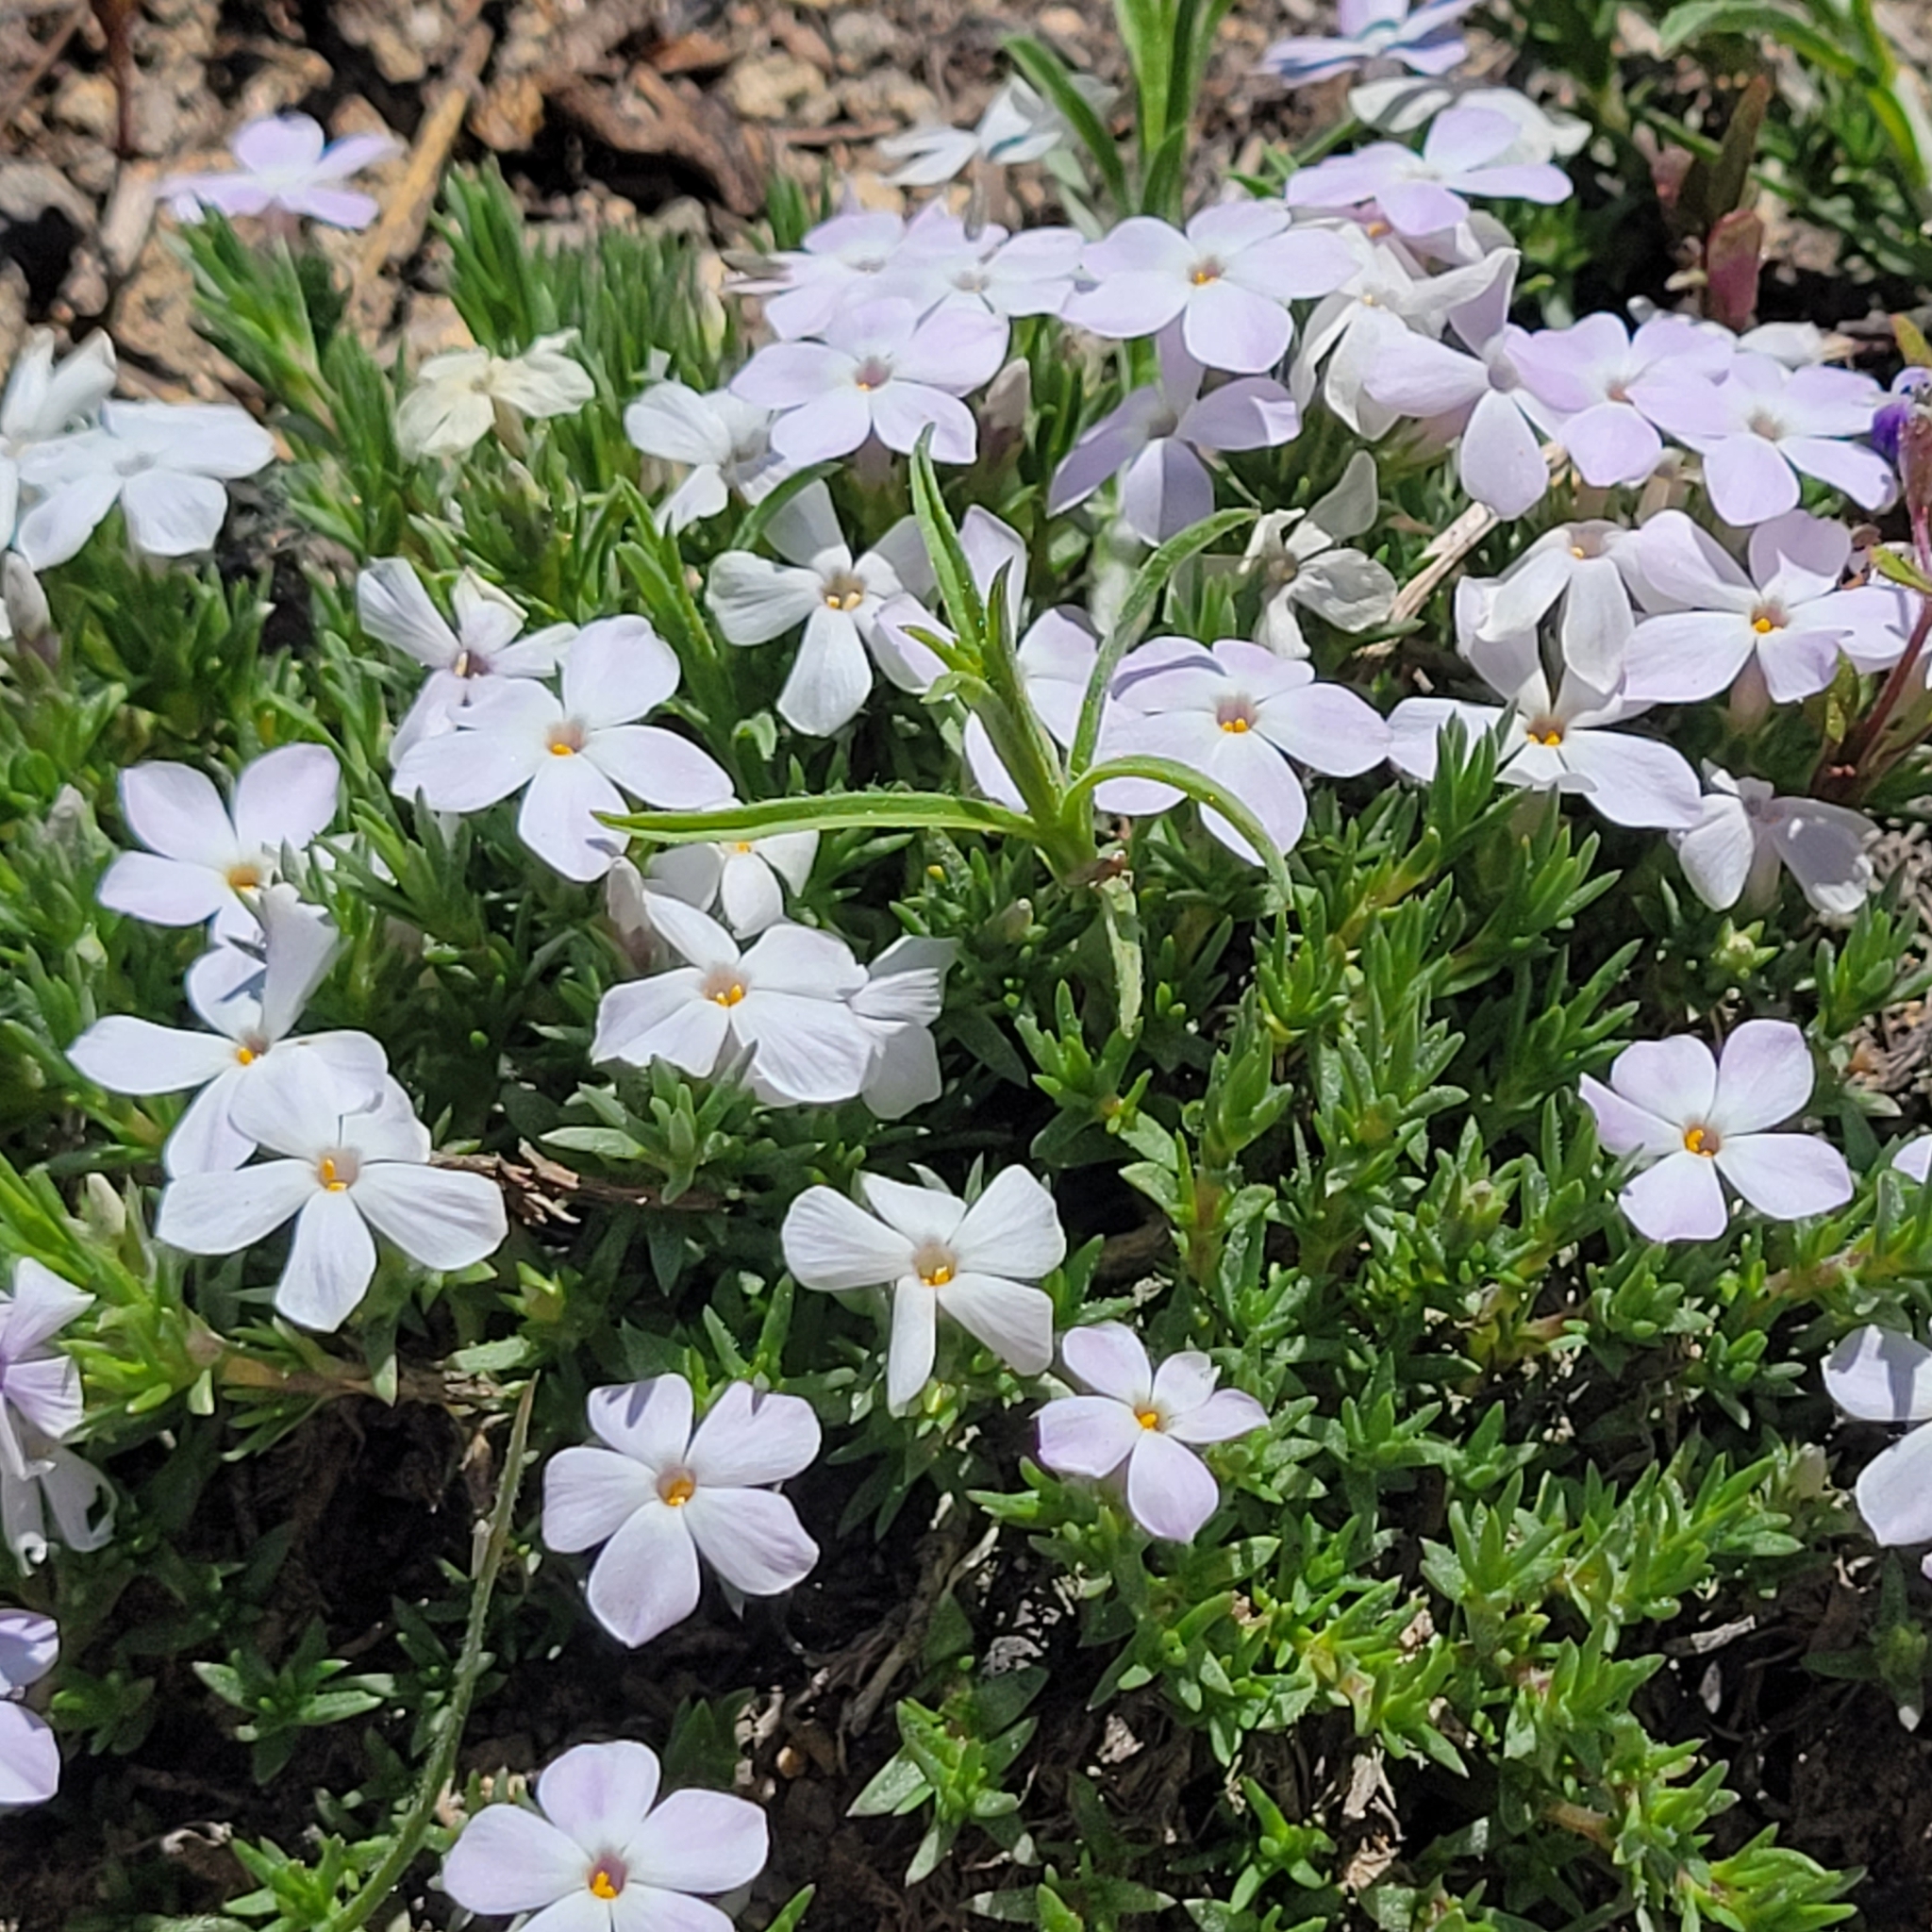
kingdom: Plantae
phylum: Tracheophyta
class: Magnoliopsida
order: Ericales
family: Polemoniaceae
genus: Phlox
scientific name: Phlox diffusa
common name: Mat phlox
